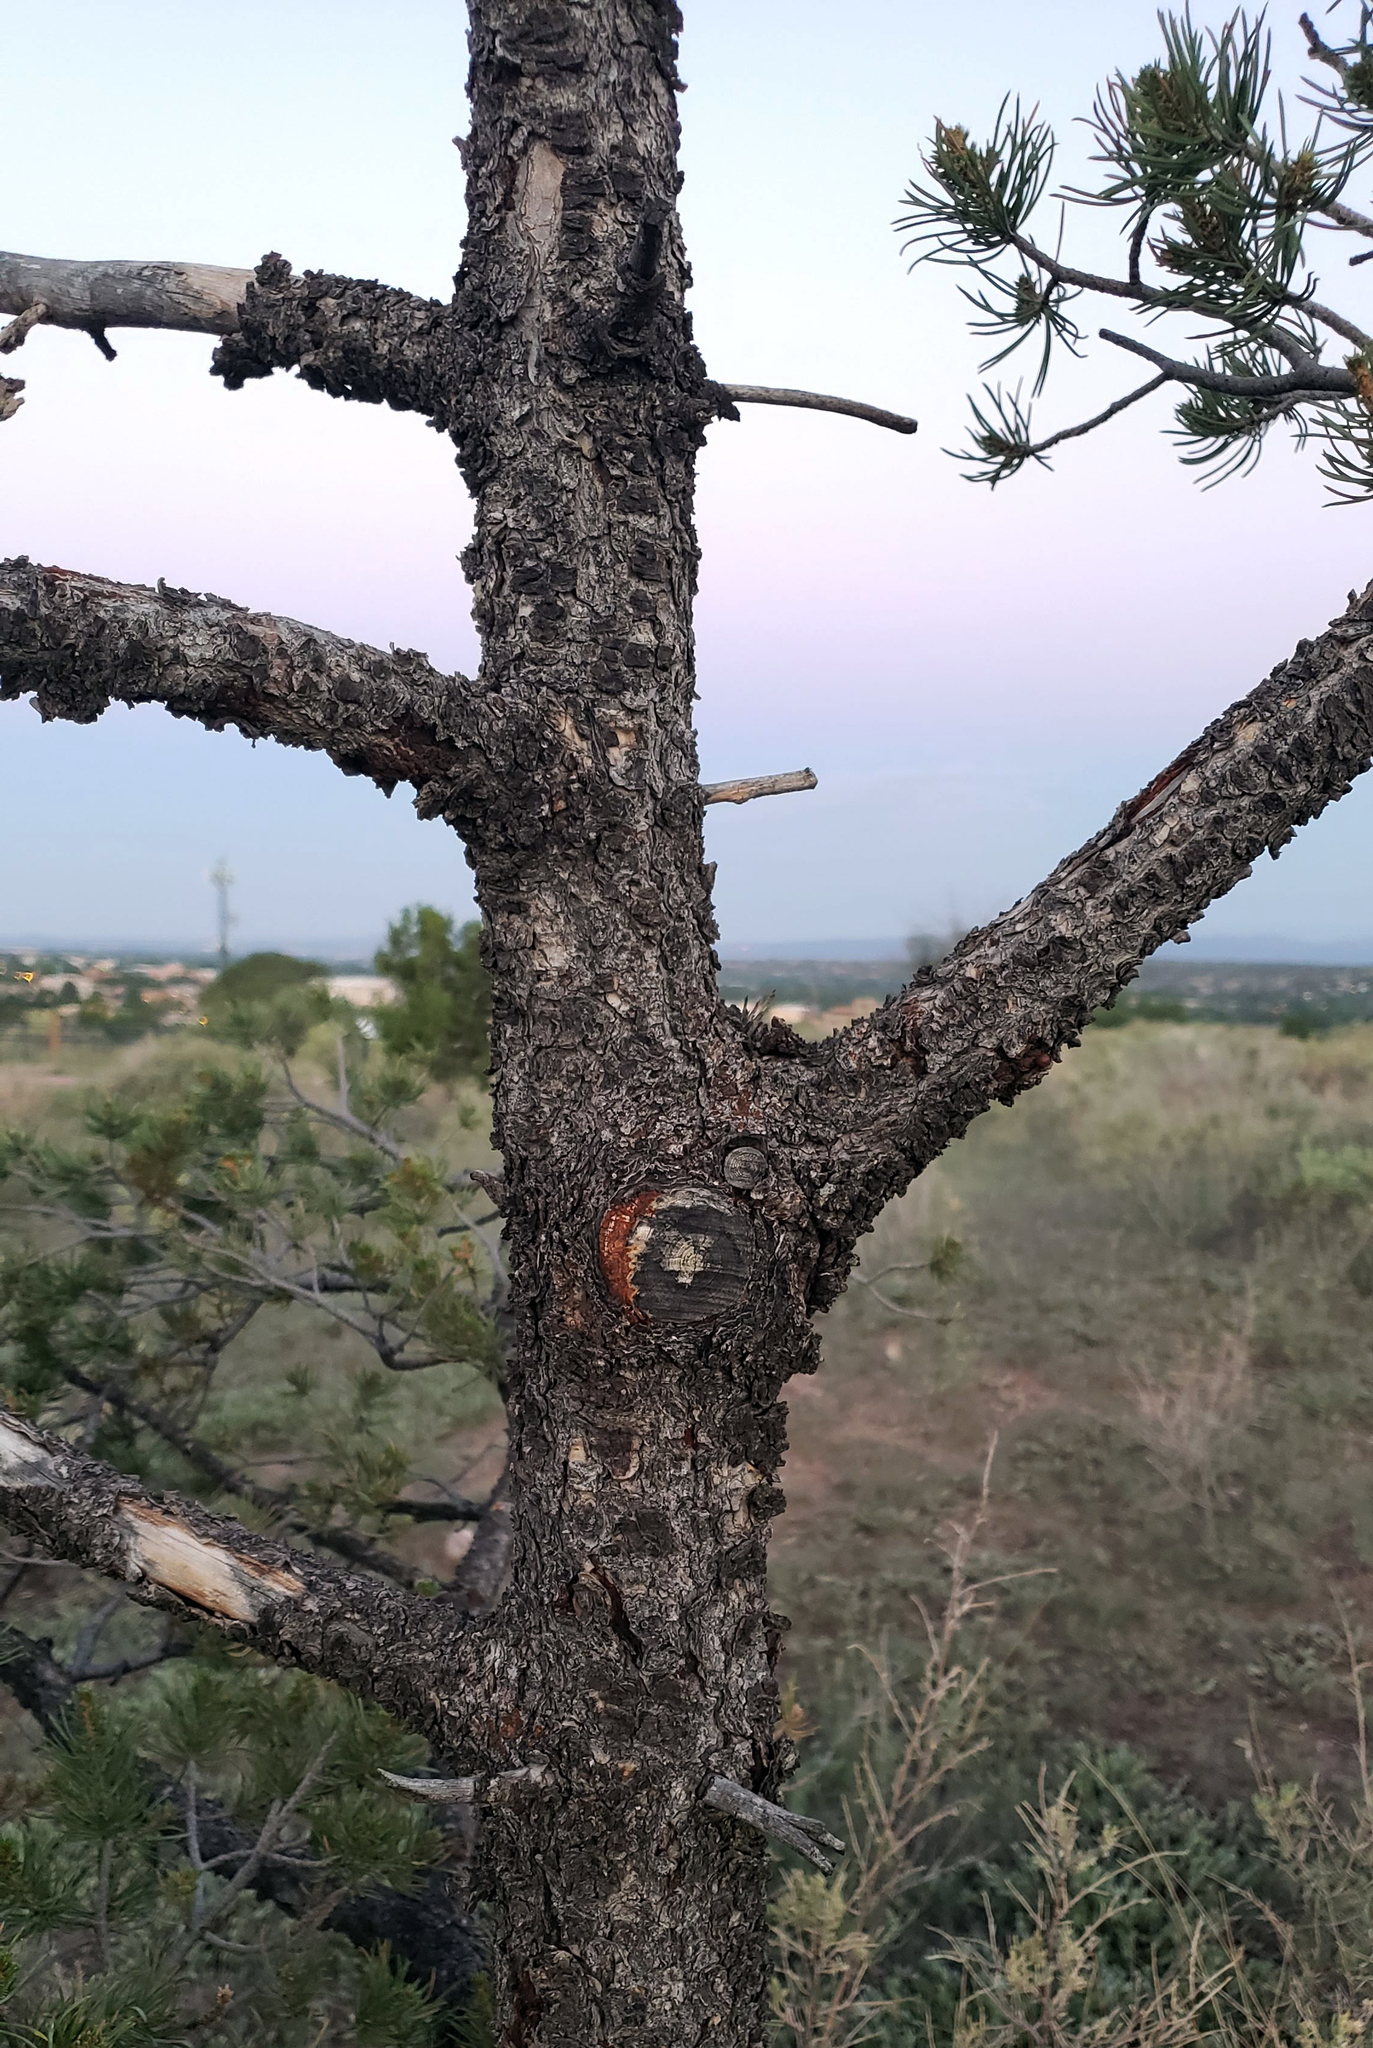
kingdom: Plantae
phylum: Tracheophyta
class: Pinopsida
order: Pinales
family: Pinaceae
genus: Pinus
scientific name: Pinus edulis
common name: Colorado pinyon
